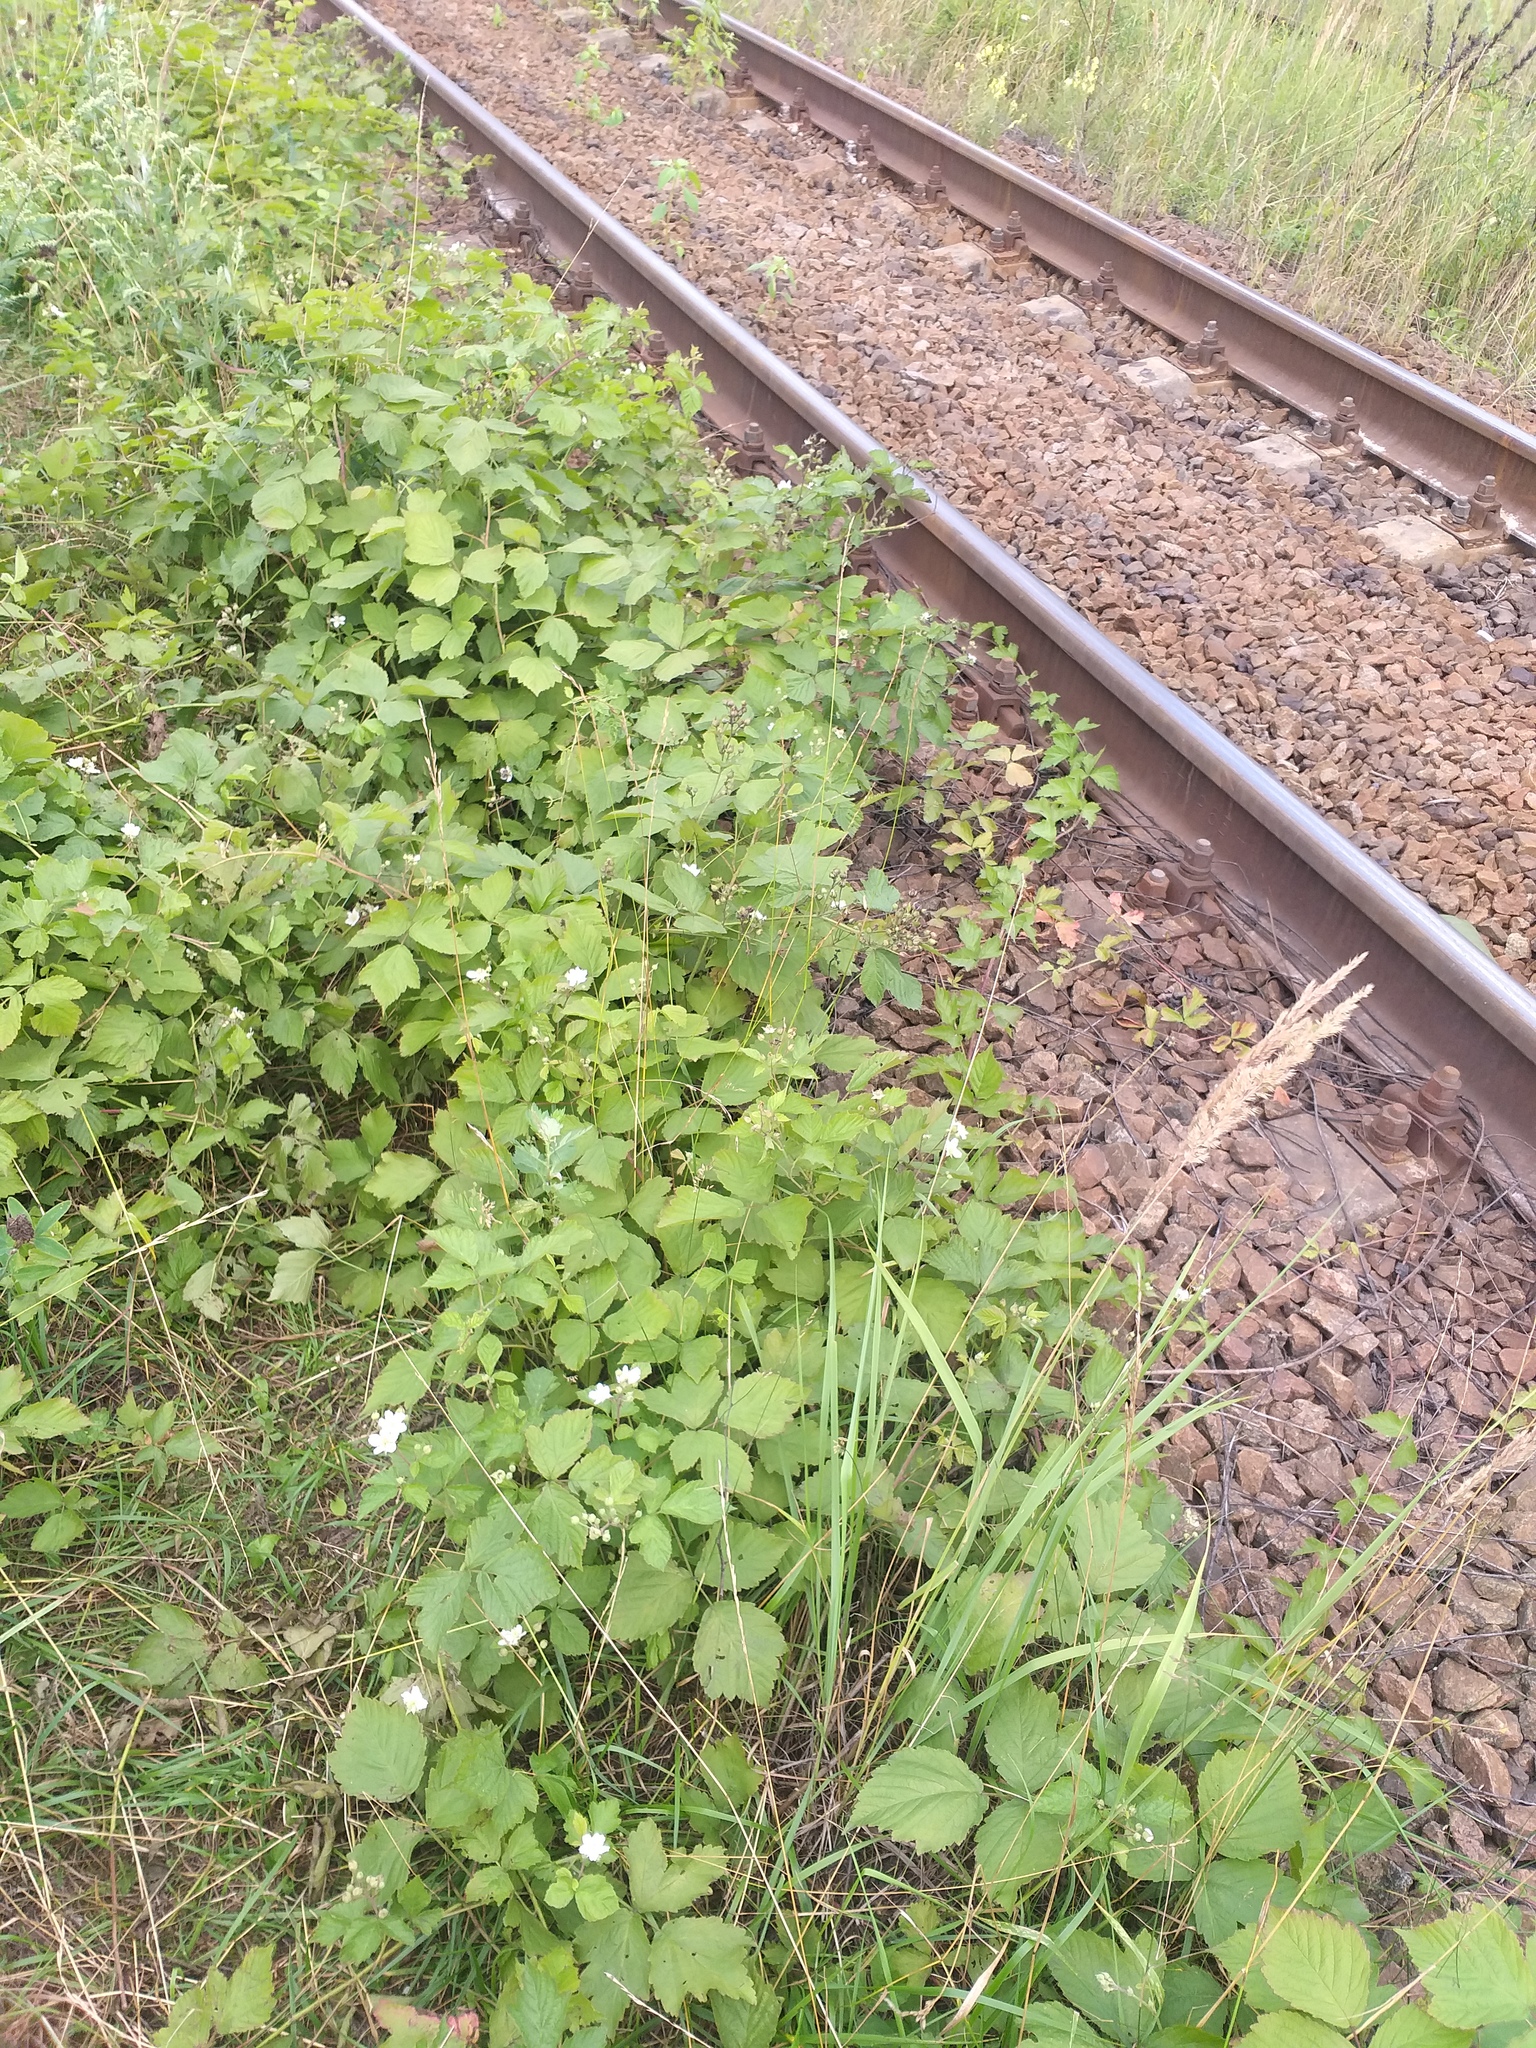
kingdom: Plantae
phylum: Tracheophyta
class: Magnoliopsida
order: Rosales
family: Rosaceae
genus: Rubus
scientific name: Rubus caesius
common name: Dewberry
